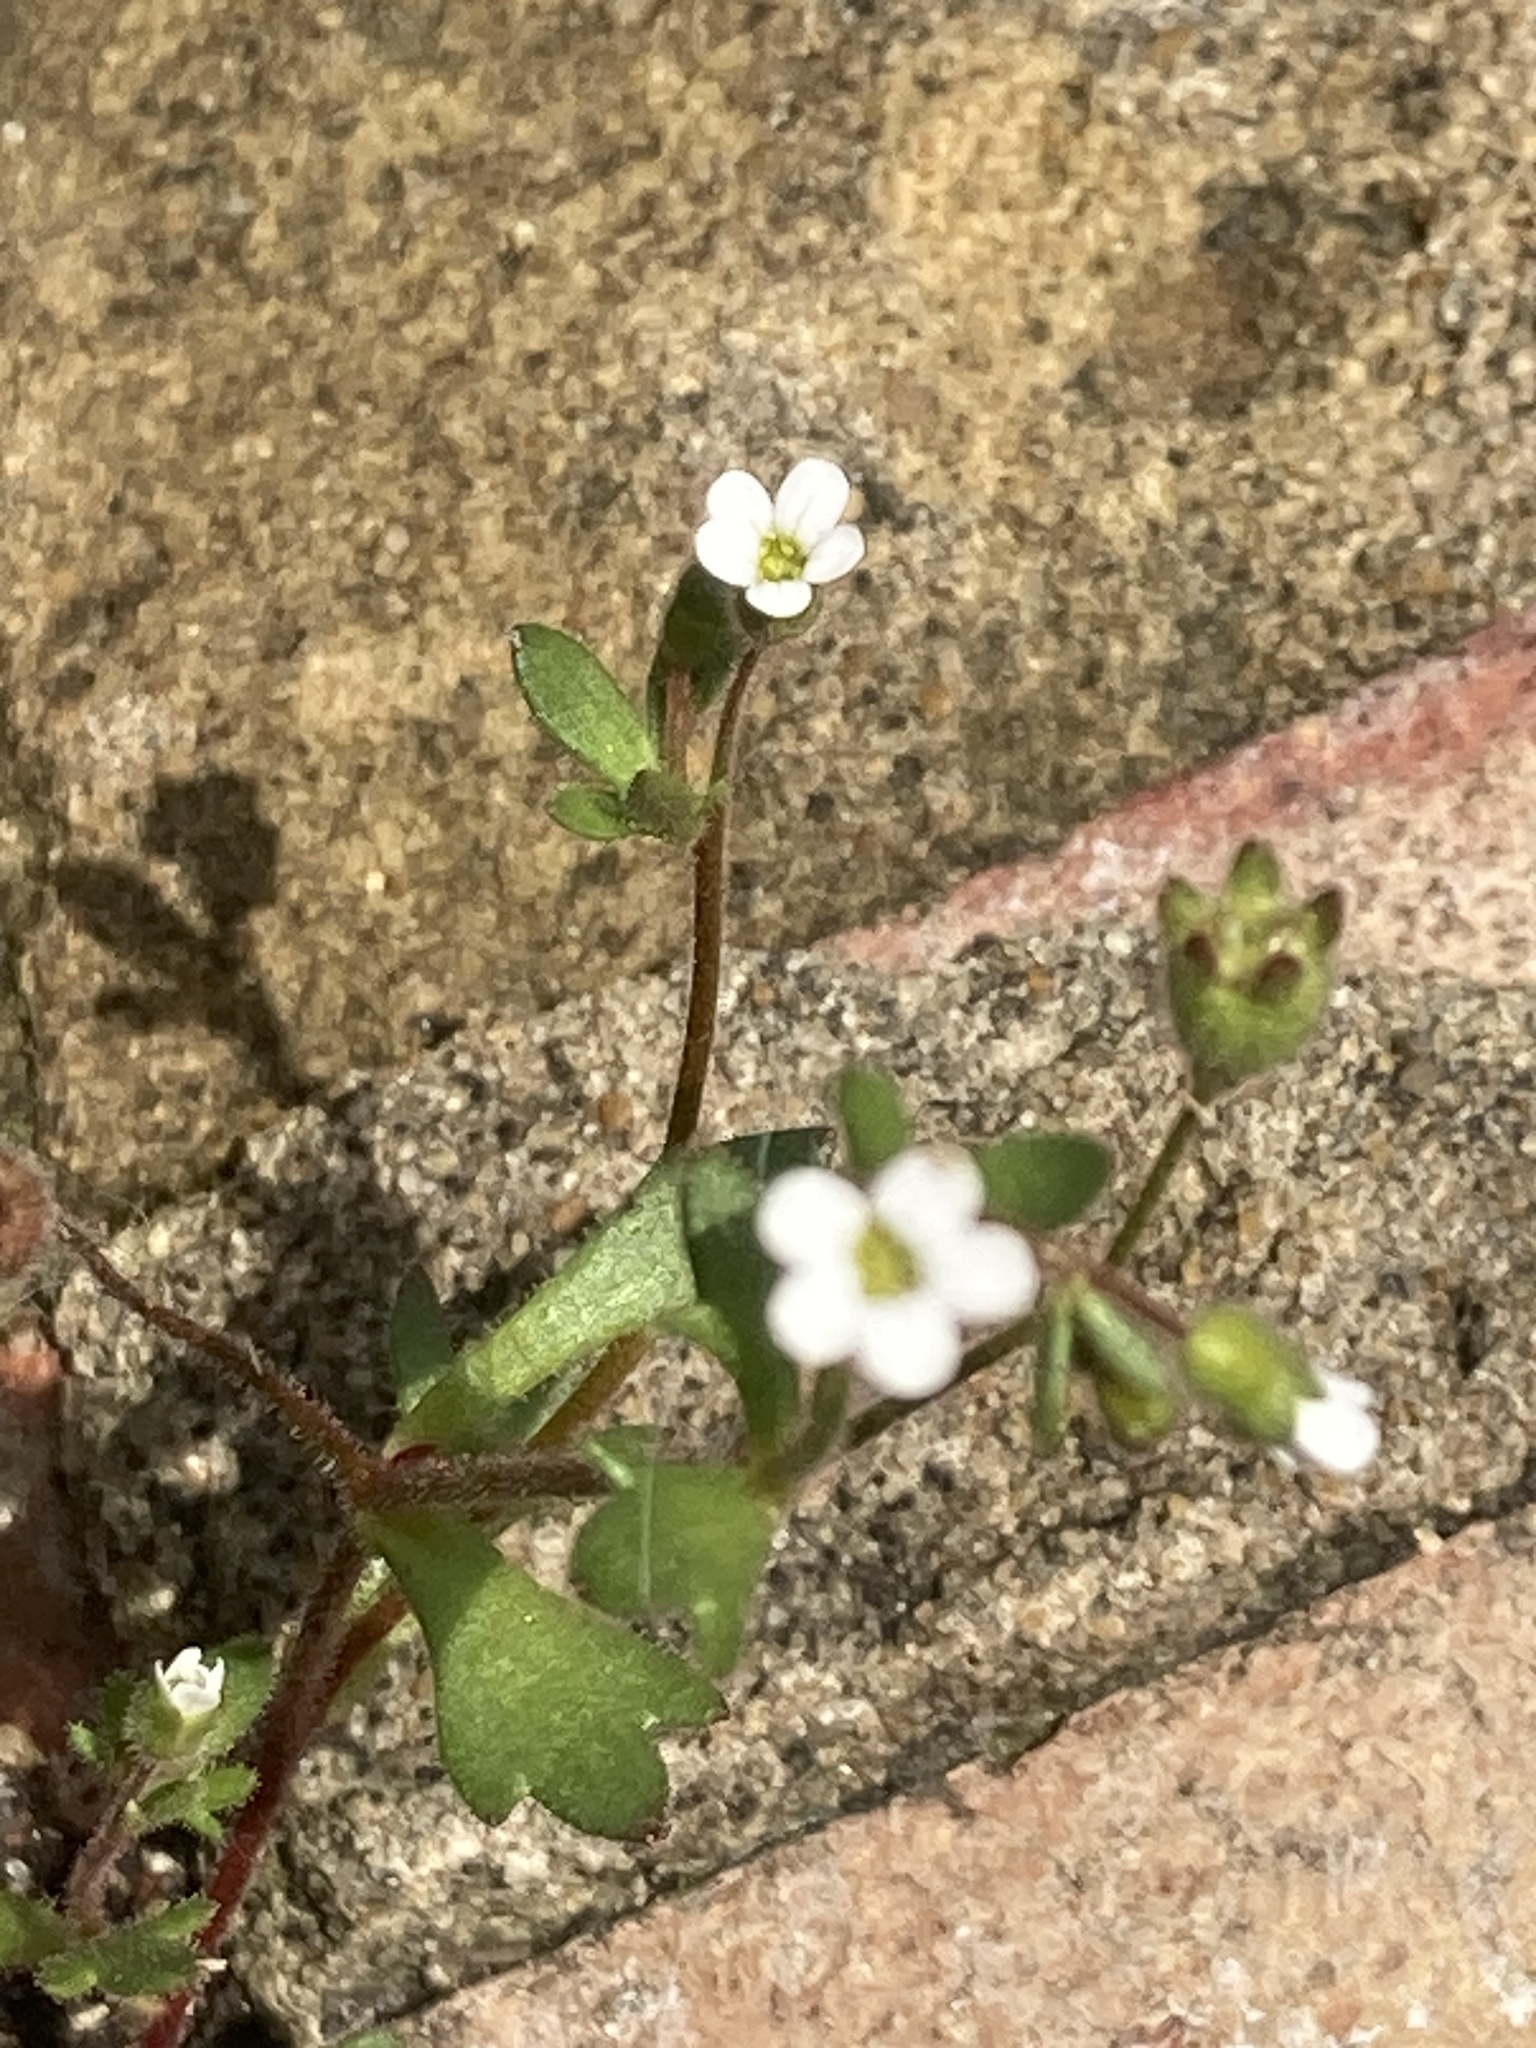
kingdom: Plantae
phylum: Tracheophyta
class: Magnoliopsida
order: Saxifragales
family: Saxifragaceae
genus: Saxifraga
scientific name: Saxifraga tridactylites
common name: Rue-leaved saxifrage
